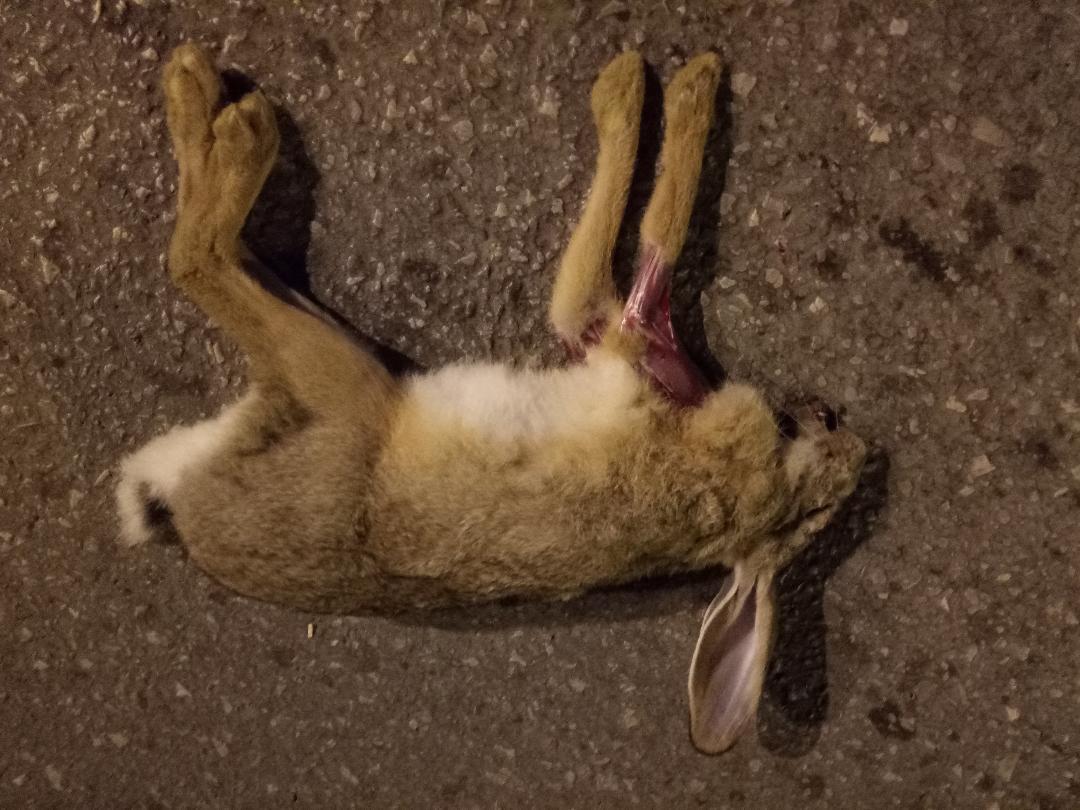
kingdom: Animalia
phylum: Chordata
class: Mammalia
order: Lagomorpha
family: Leporidae
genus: Lepus
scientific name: Lepus capensis
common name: Cape hare
